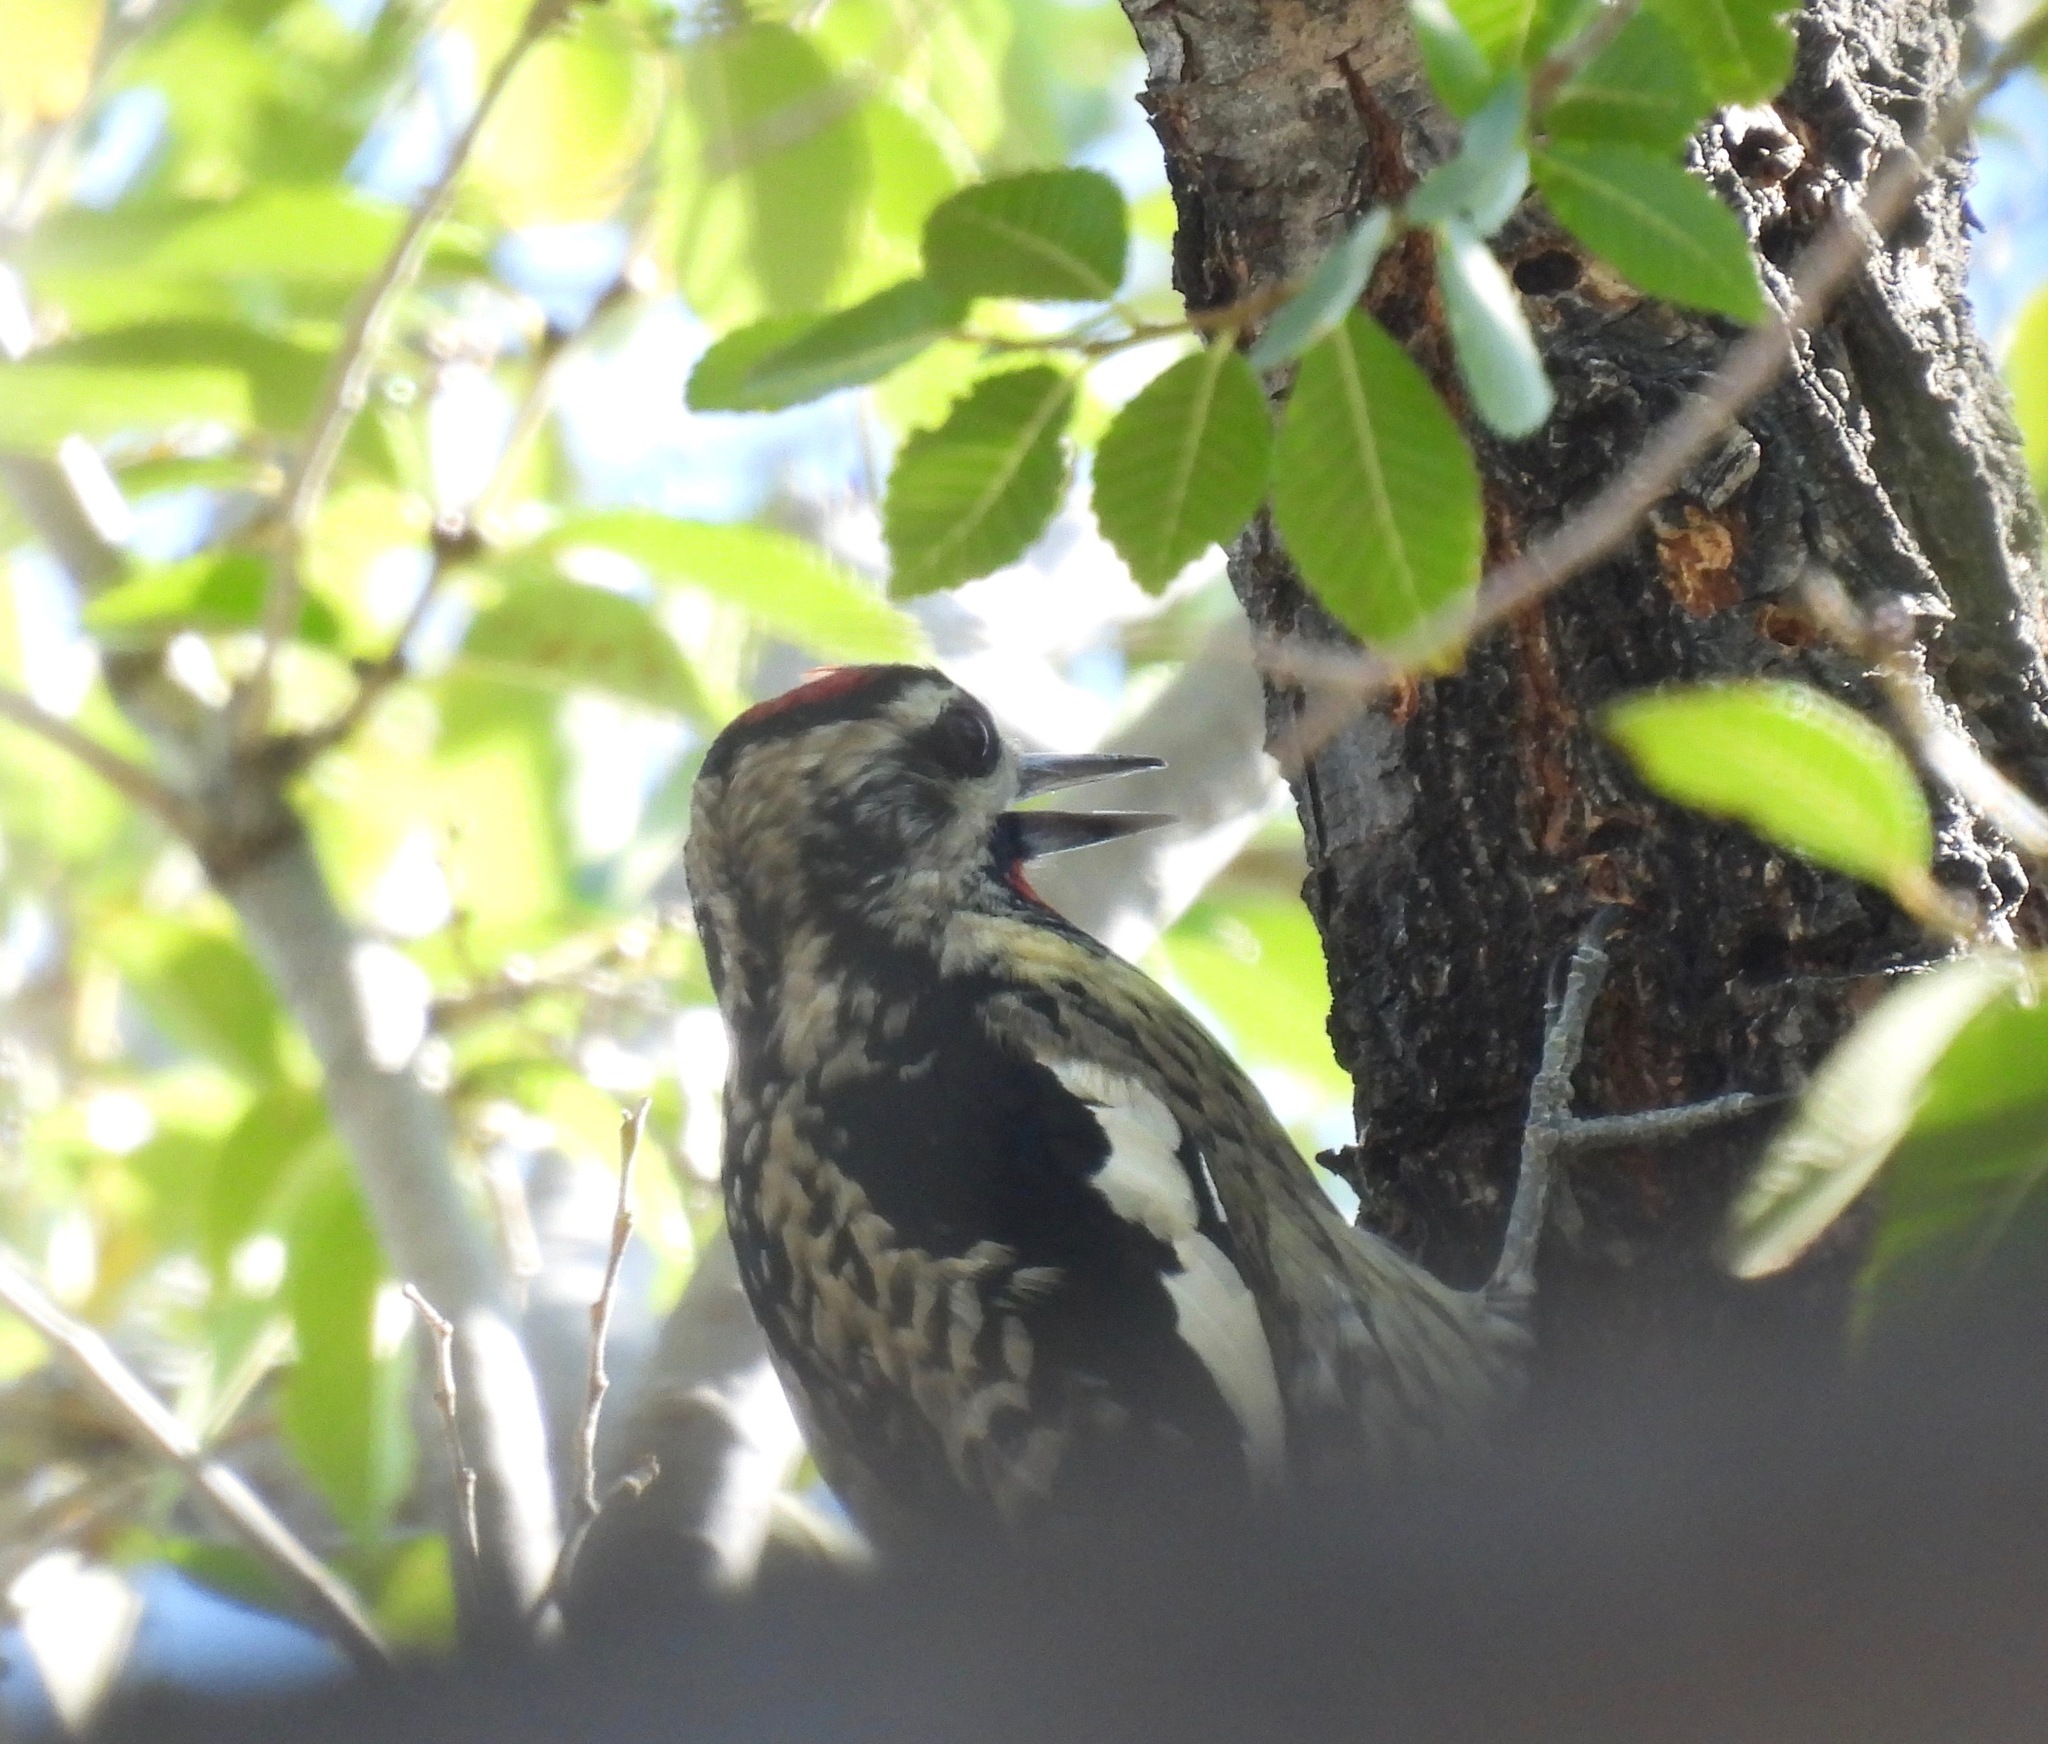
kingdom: Animalia
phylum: Chordata
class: Aves
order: Piciformes
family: Picidae
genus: Sphyrapicus
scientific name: Sphyrapicus varius
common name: Yellow-bellied sapsucker
